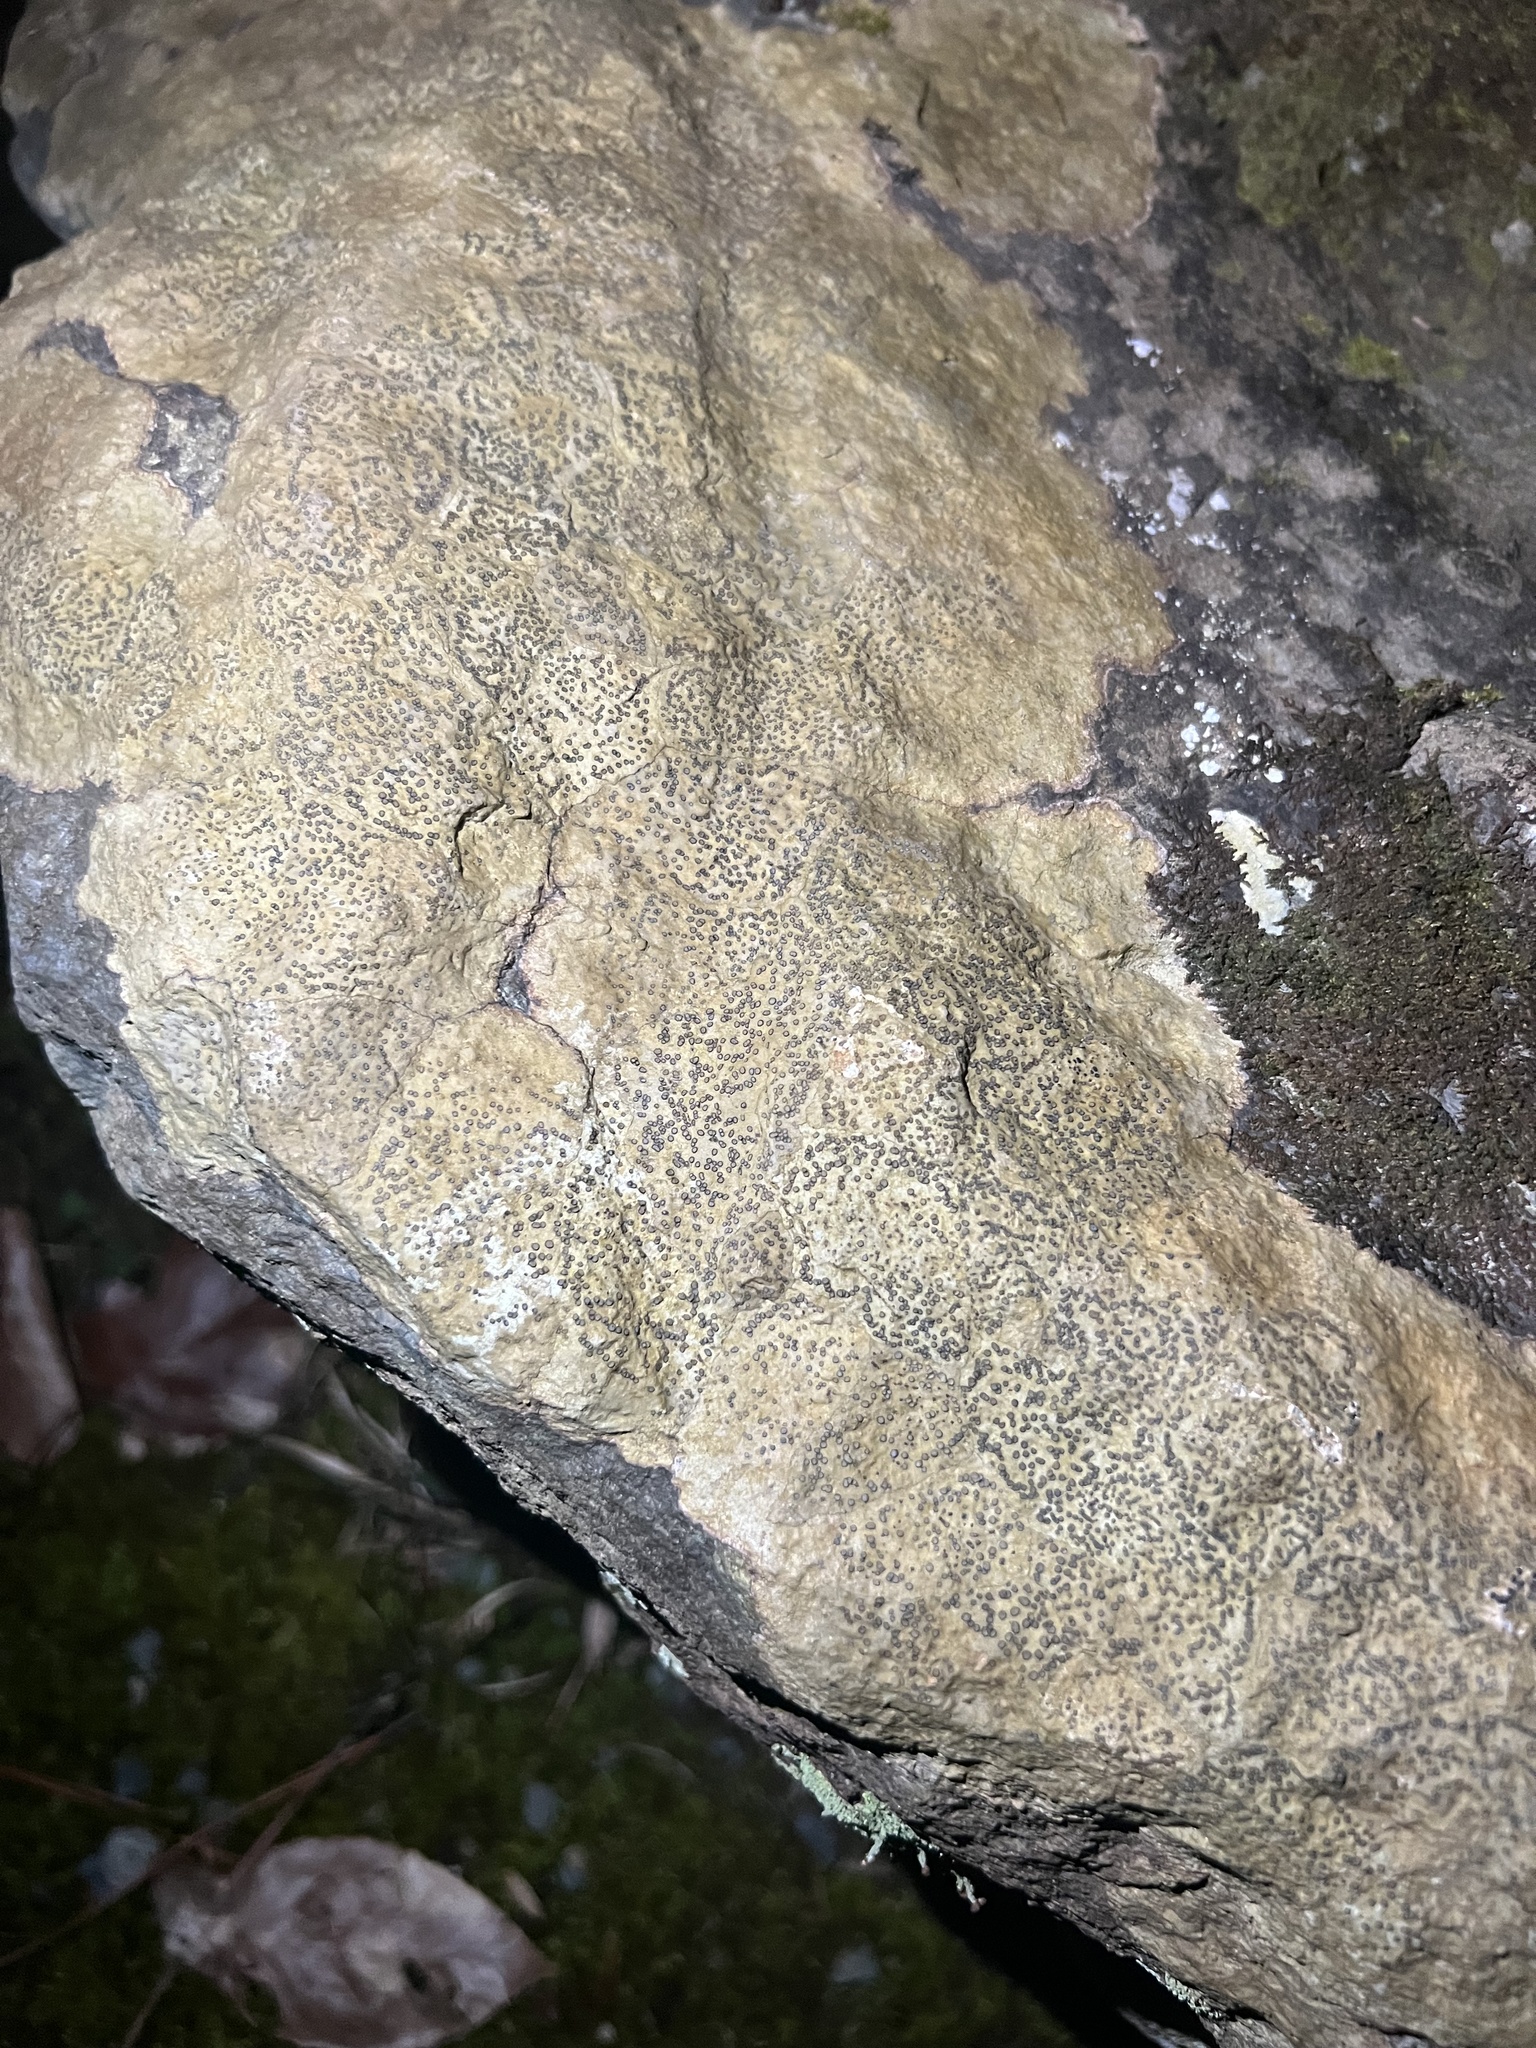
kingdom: Fungi
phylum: Ascomycota
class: Lecanoromycetes
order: Lecideales
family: Lecideaceae
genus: Porpidia
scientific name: Porpidia albocaerulescens
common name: Smokey-eyed boulder lichen
